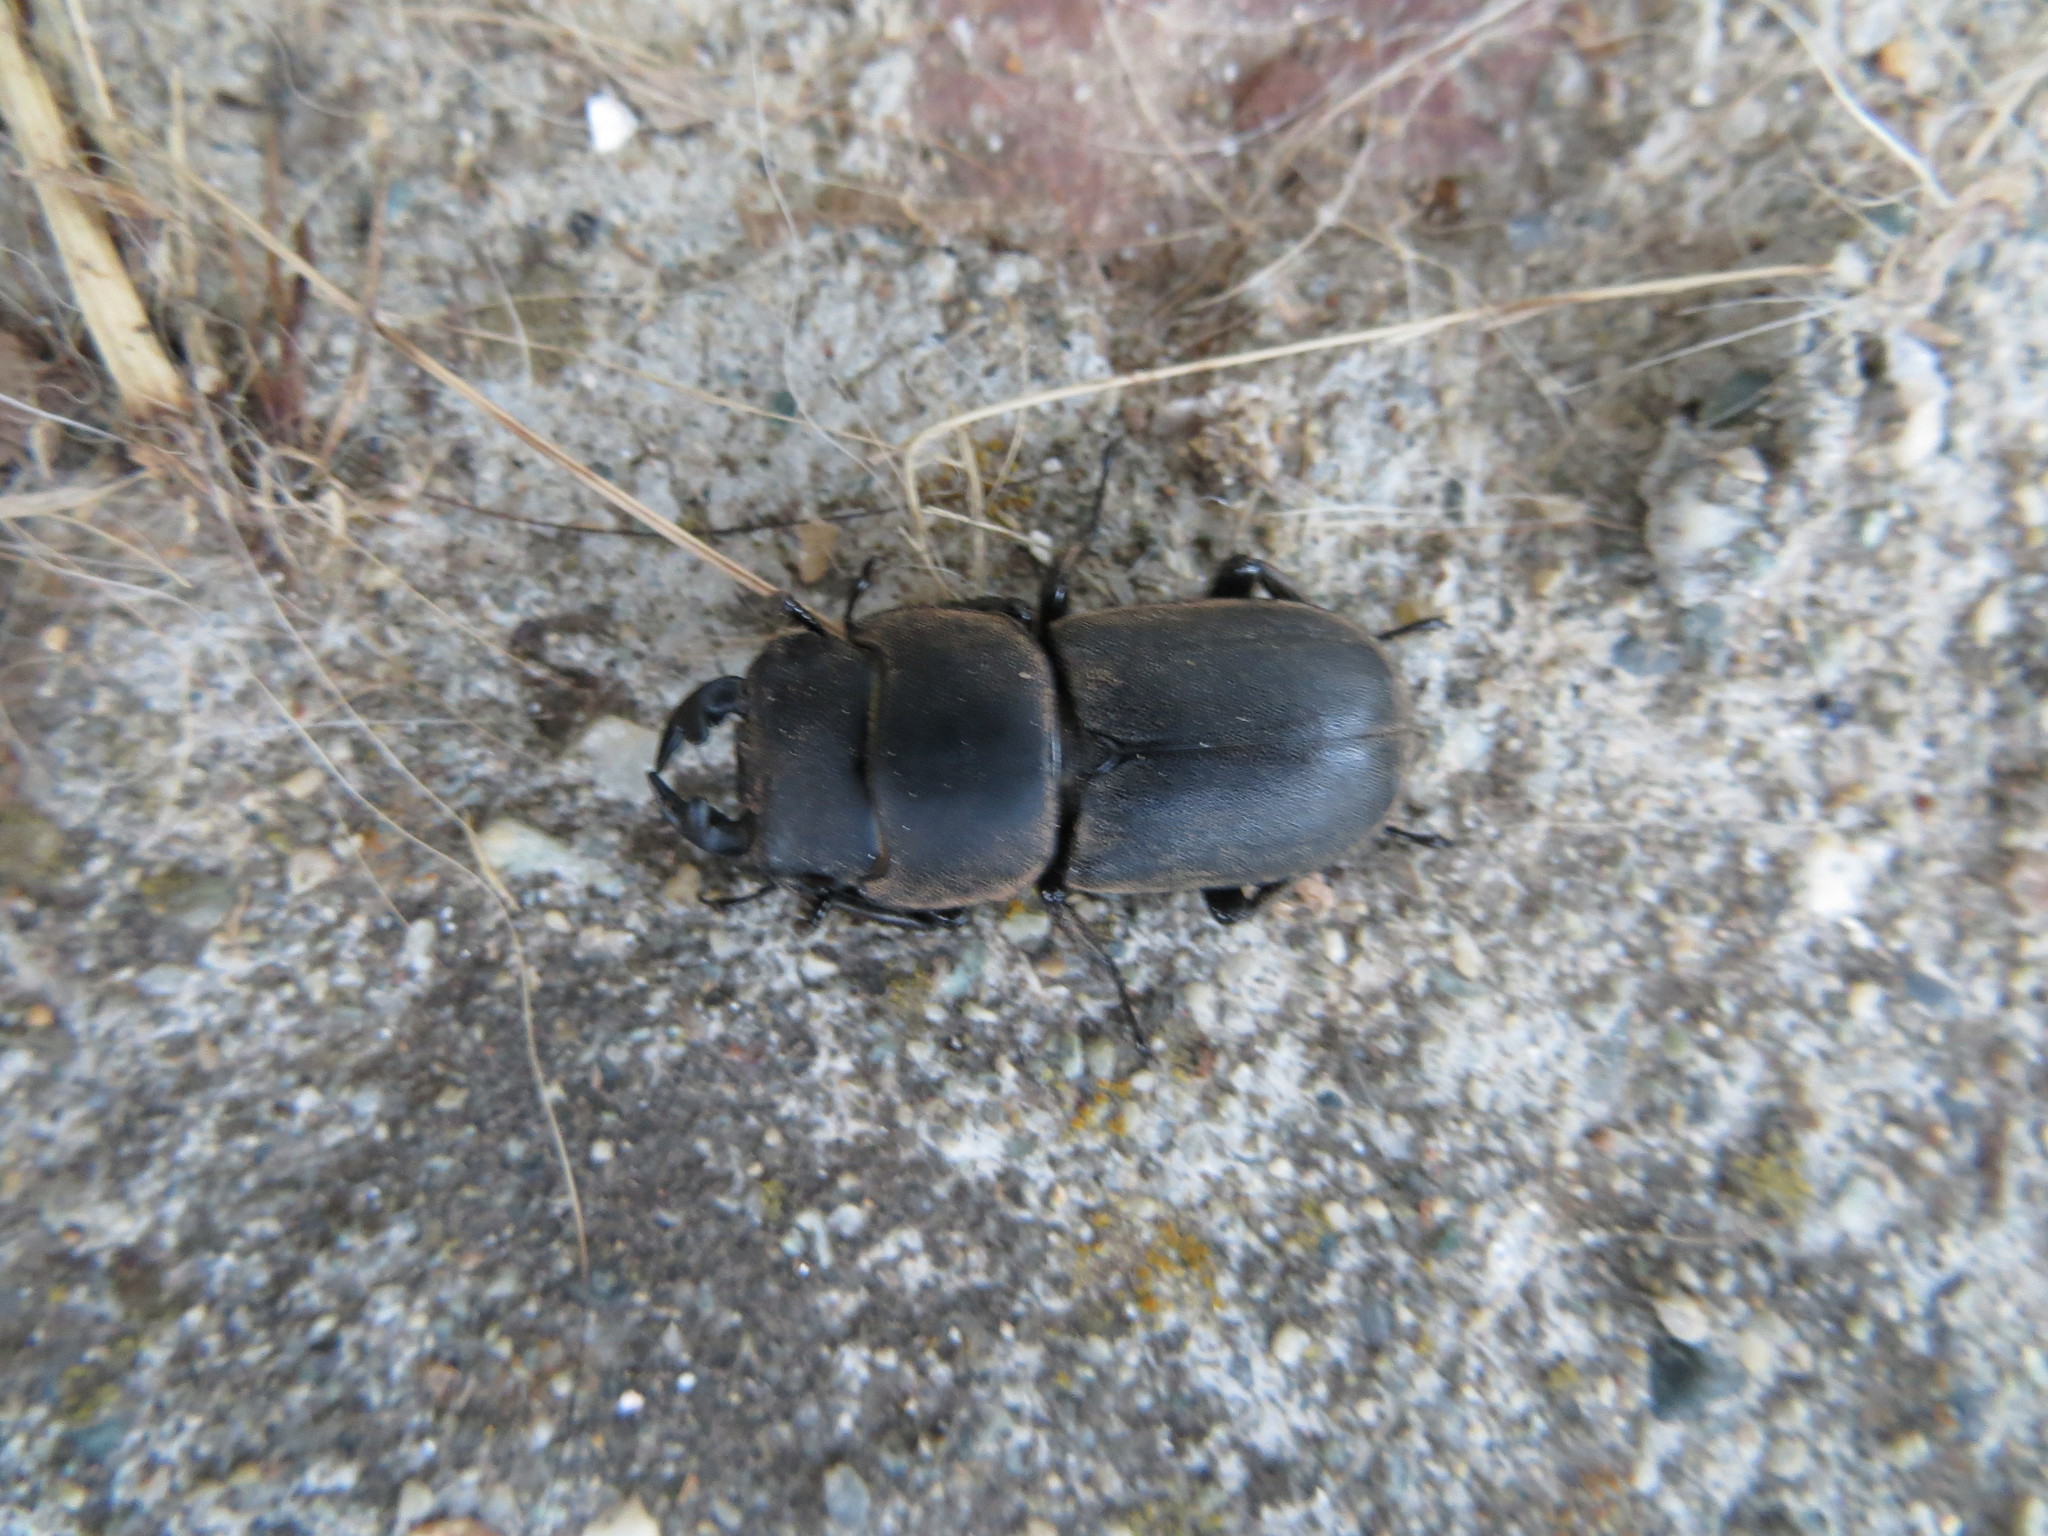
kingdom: Animalia
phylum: Arthropoda
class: Insecta
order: Coleoptera
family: Lucanidae
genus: Dorcus
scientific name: Dorcus parallelipipedus
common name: Lesser stag beetle
